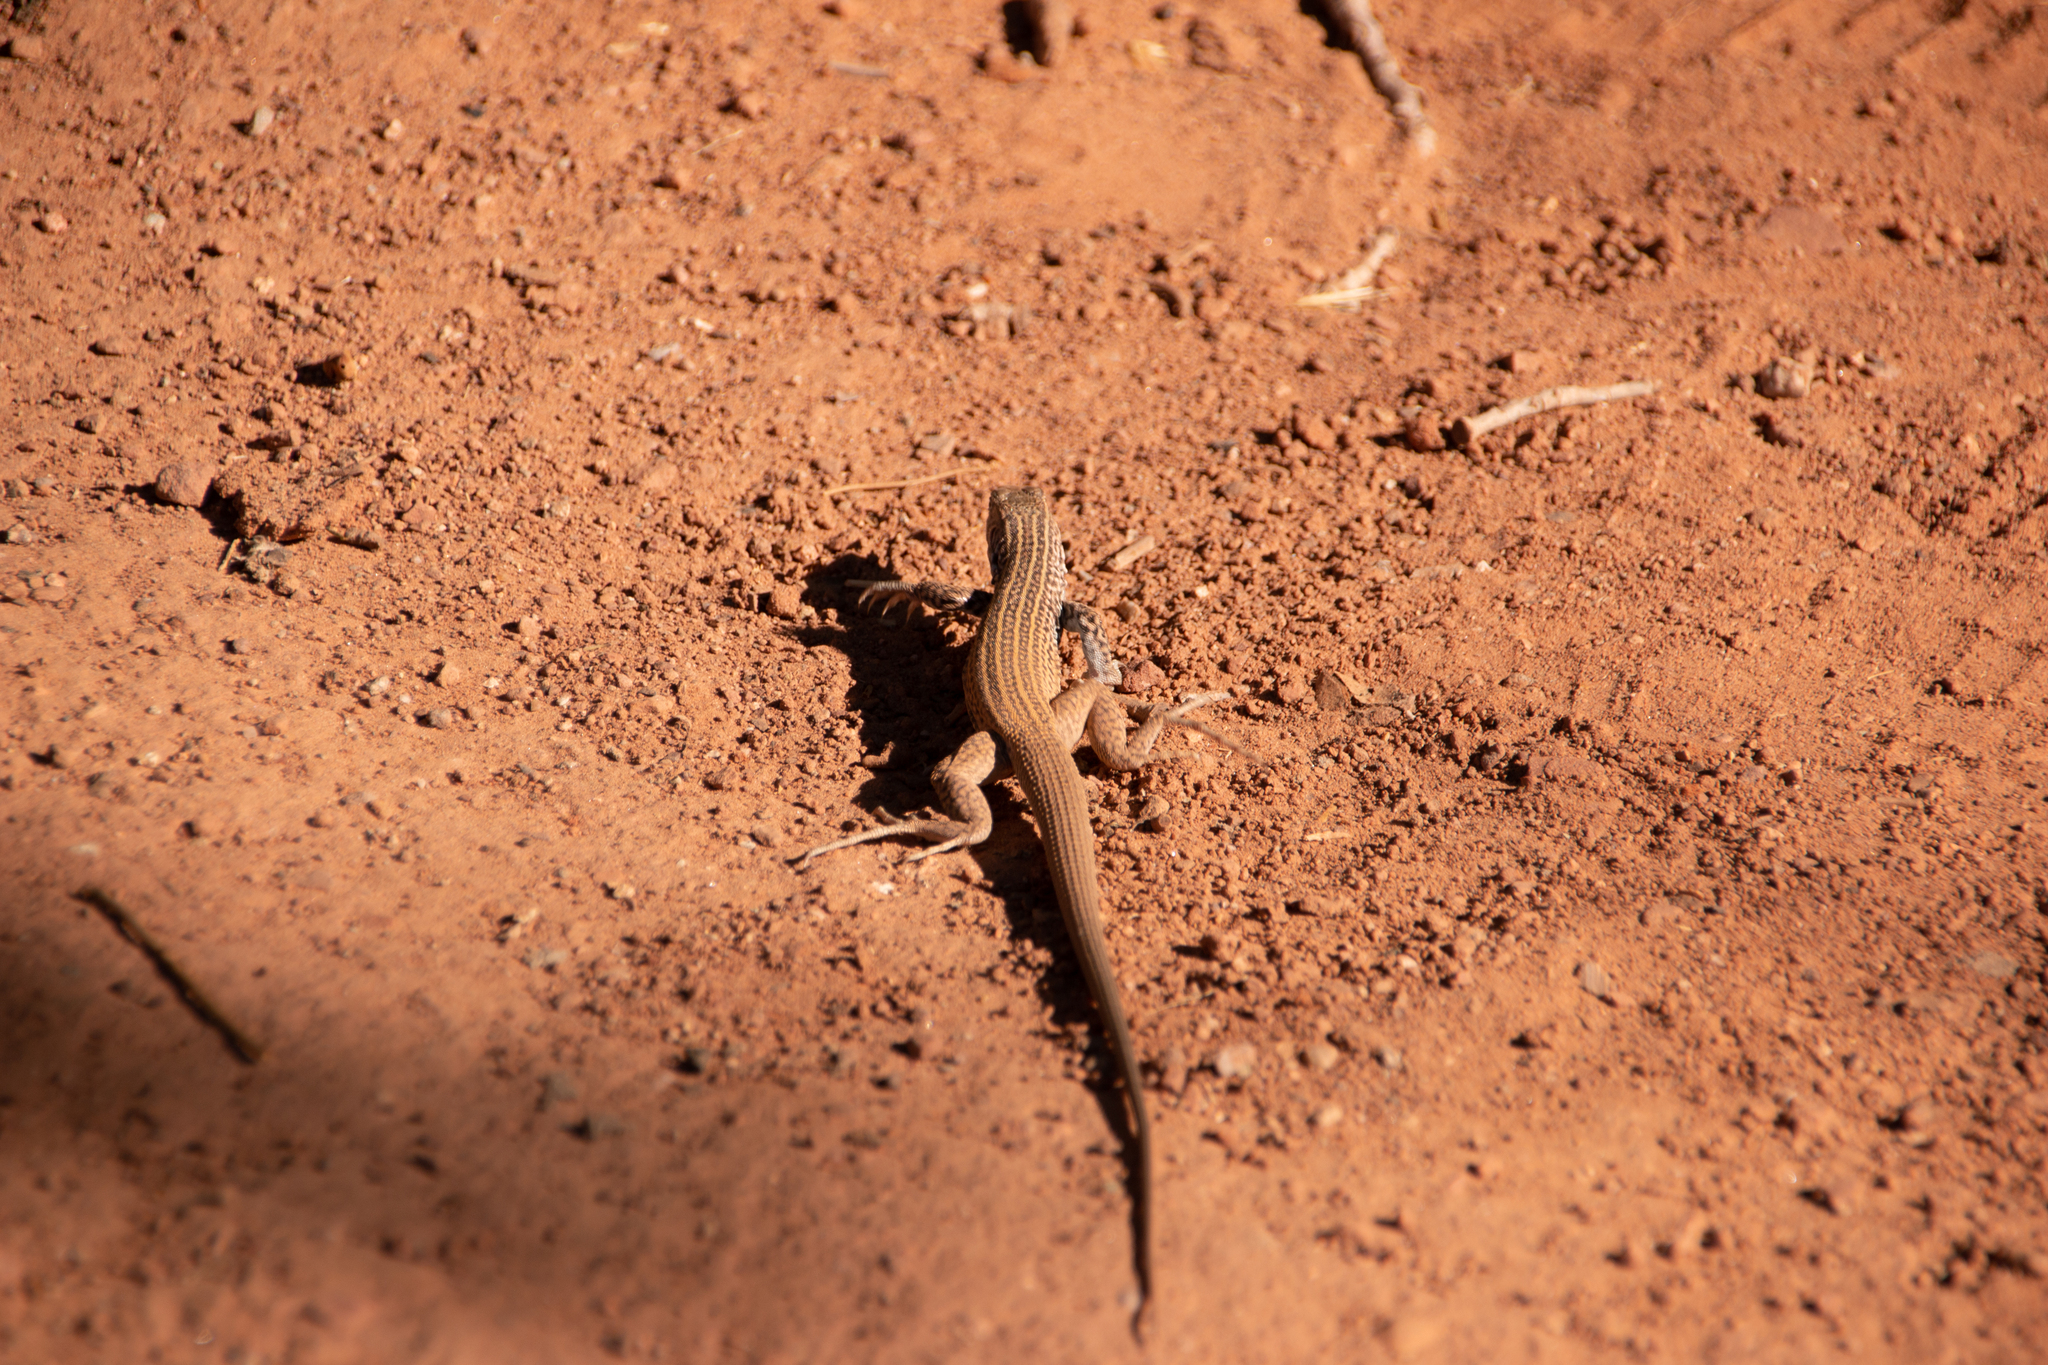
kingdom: Animalia
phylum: Chordata
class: Squamata
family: Teiidae
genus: Aspidoscelis
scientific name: Aspidoscelis tigris
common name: Tiger whiptail
